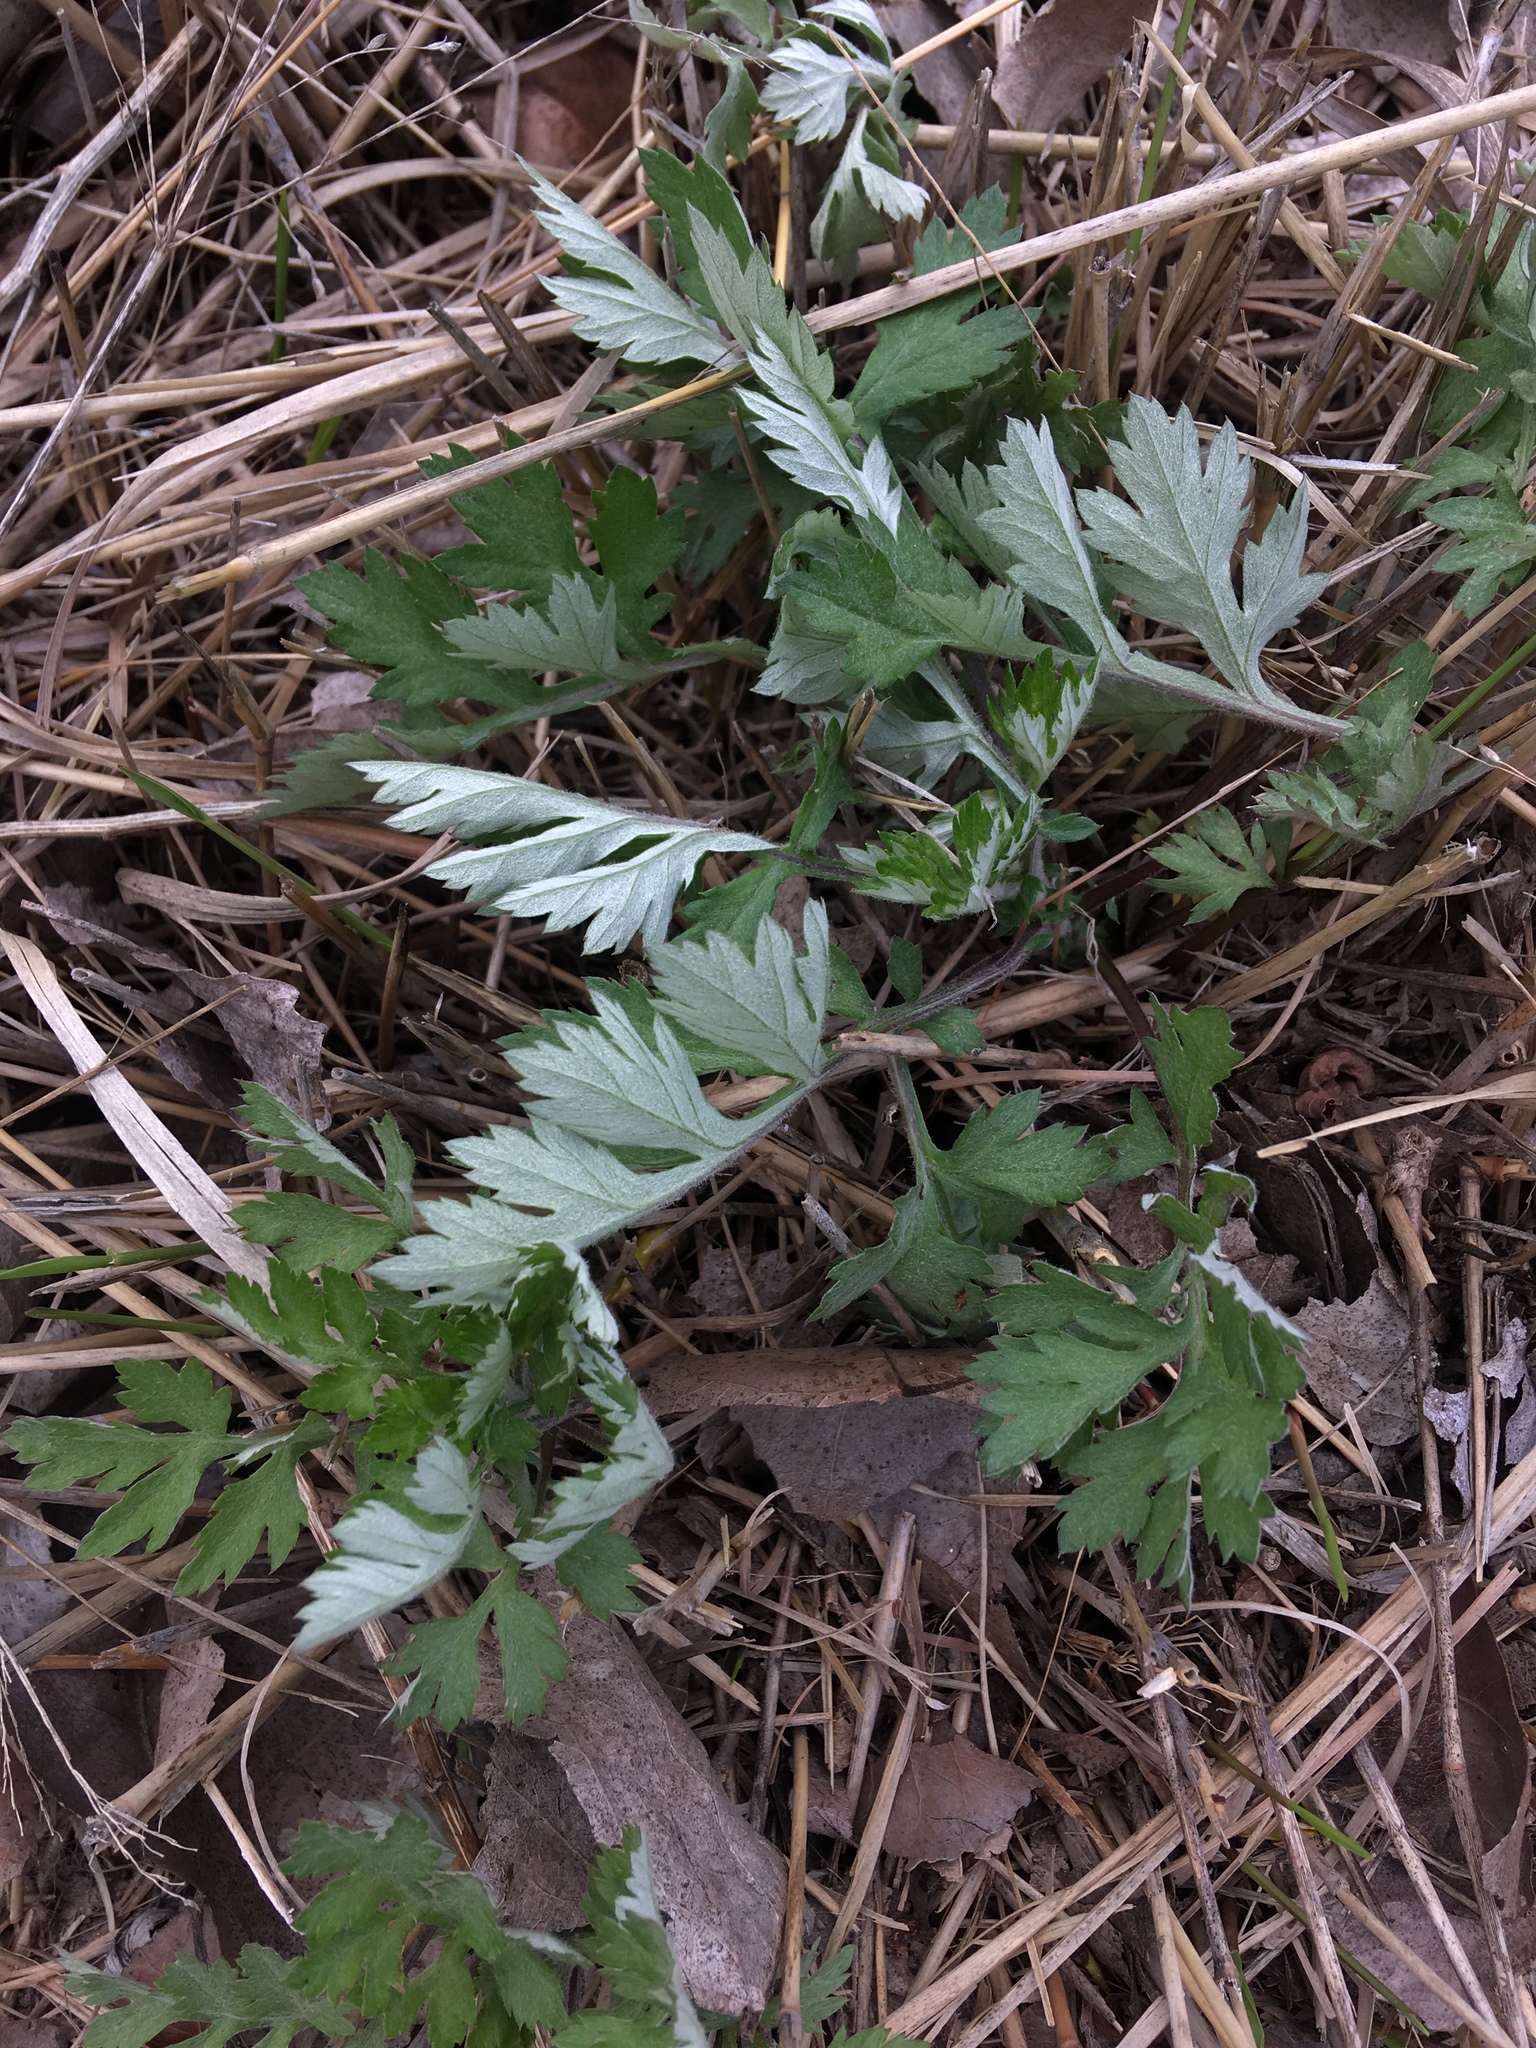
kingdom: Plantae
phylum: Tracheophyta
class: Magnoliopsida
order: Asterales
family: Asteraceae
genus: Artemisia
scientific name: Artemisia vulgaris
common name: Mugwort
